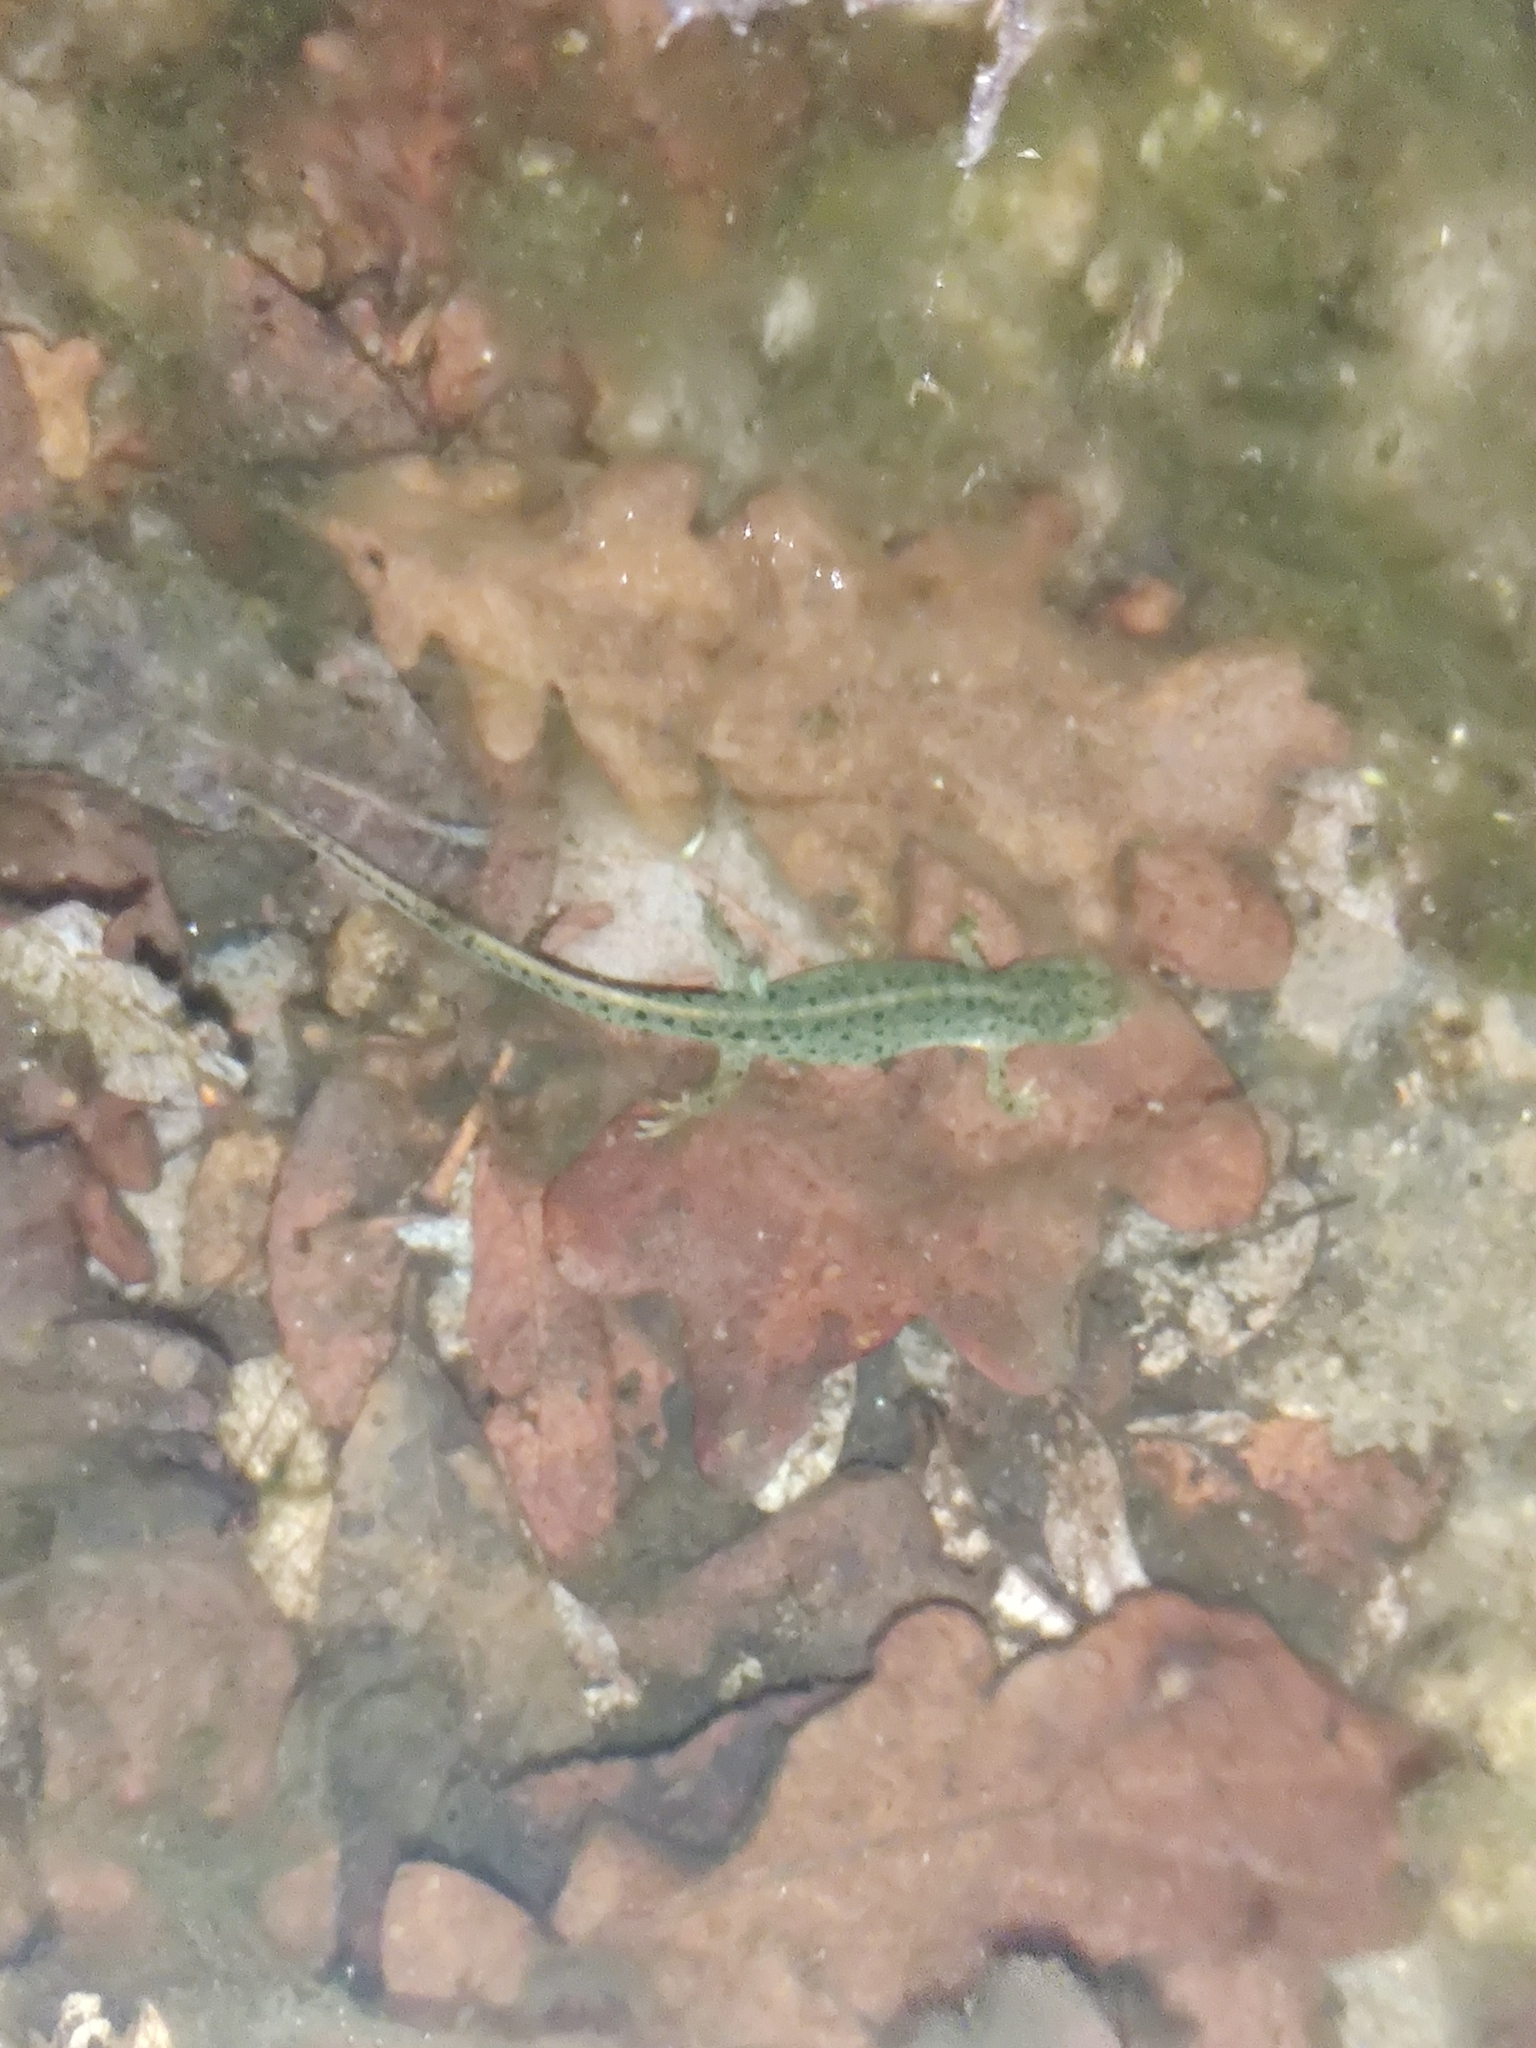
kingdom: Animalia
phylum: Chordata
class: Amphibia
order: Caudata
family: Salamandridae
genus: Lissotriton
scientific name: Lissotriton boscai
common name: Bosca's newt
